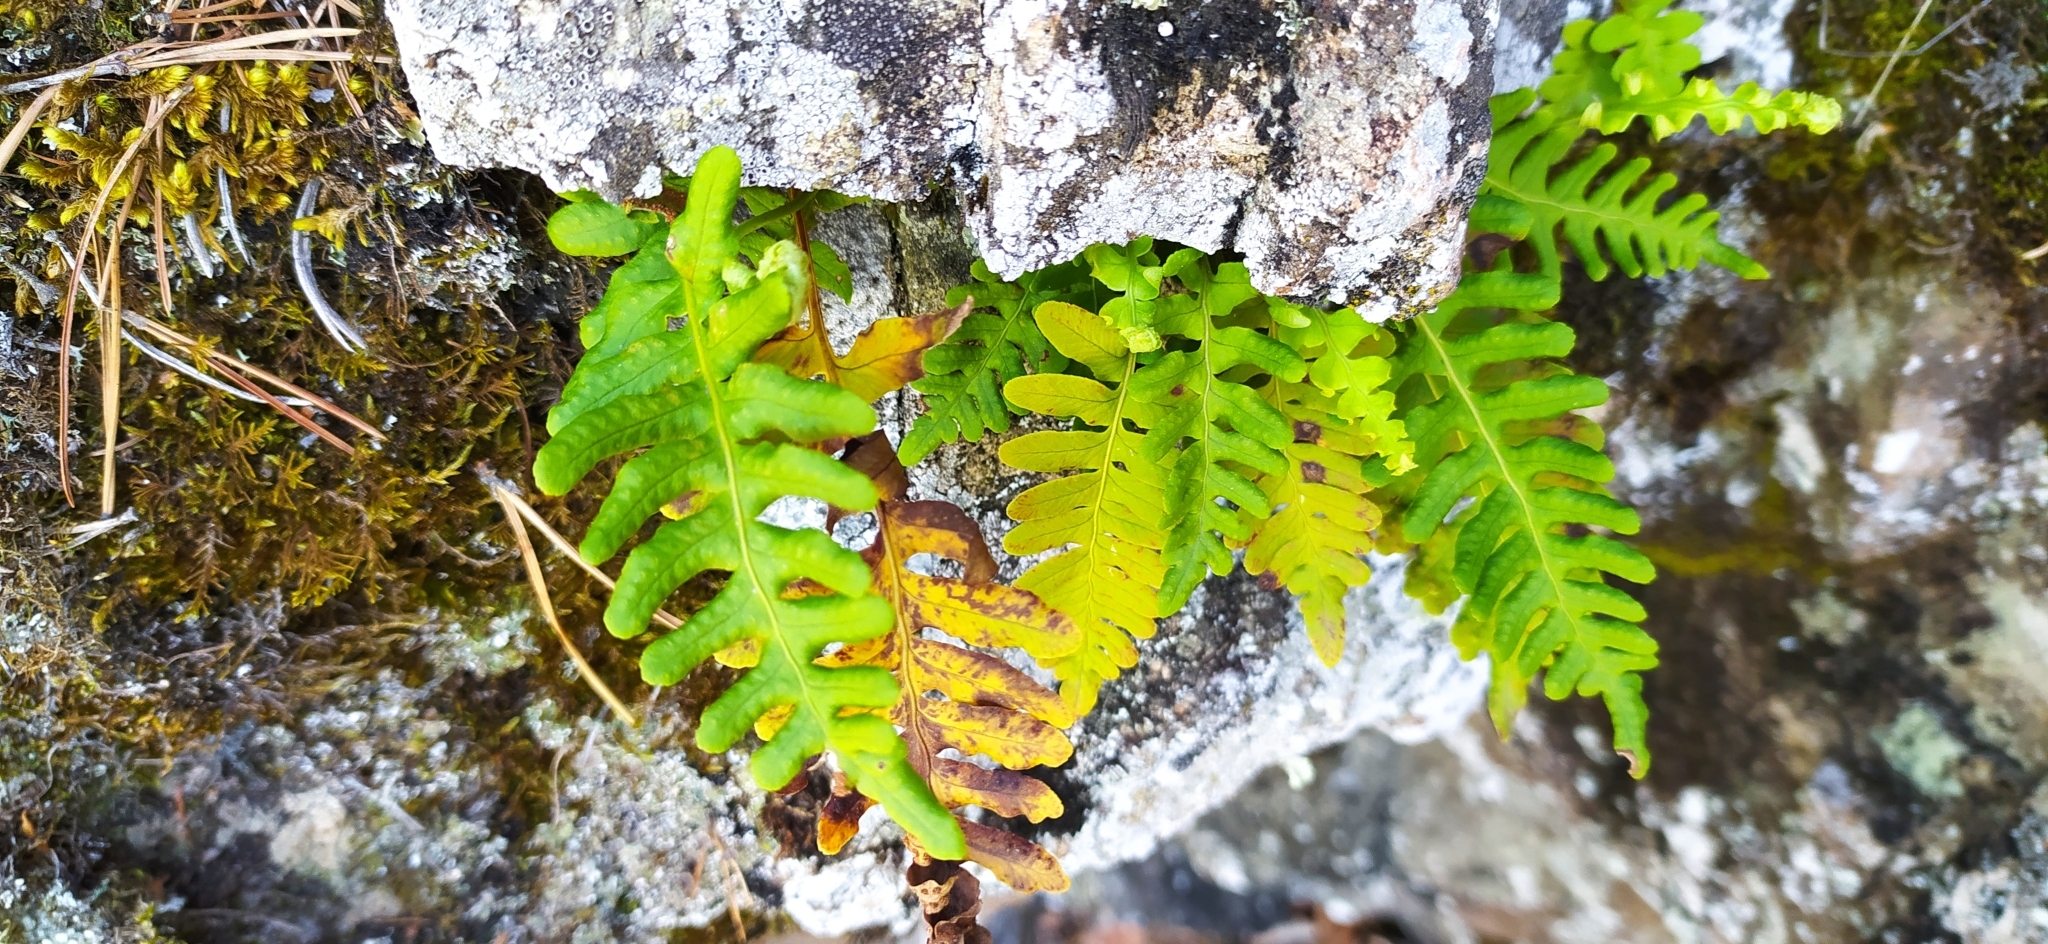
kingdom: Plantae
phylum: Tracheophyta
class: Polypodiopsida
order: Polypodiales
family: Polypodiaceae
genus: Polypodium
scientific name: Polypodium vulgare
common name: Common polypody
